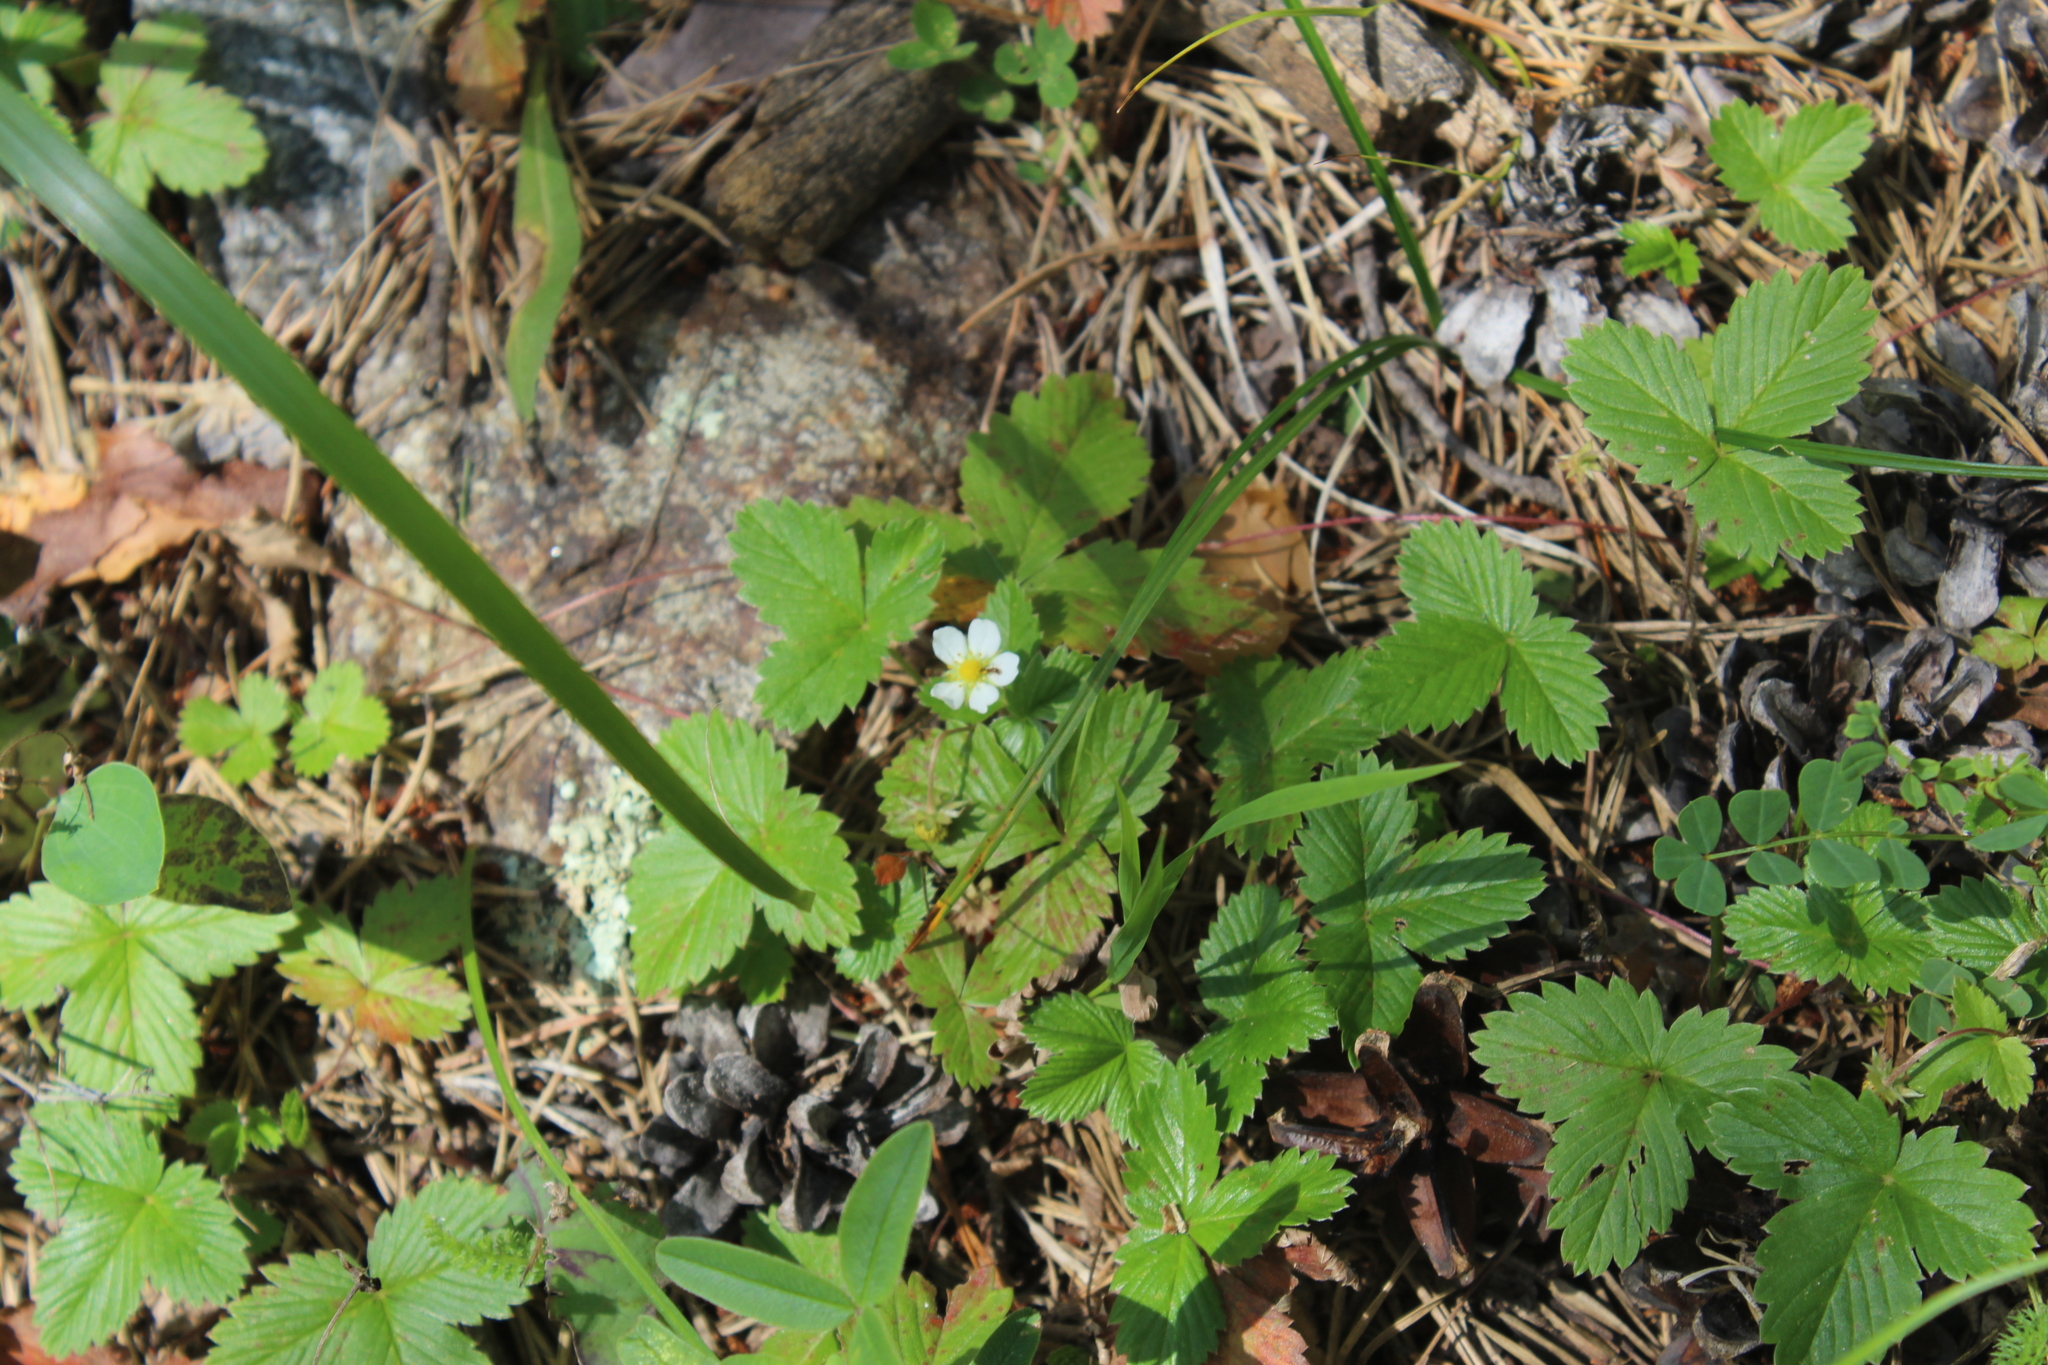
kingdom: Plantae
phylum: Tracheophyta
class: Magnoliopsida
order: Rosales
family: Rosaceae
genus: Fragaria
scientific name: Fragaria vesca
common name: Wild strawberry
